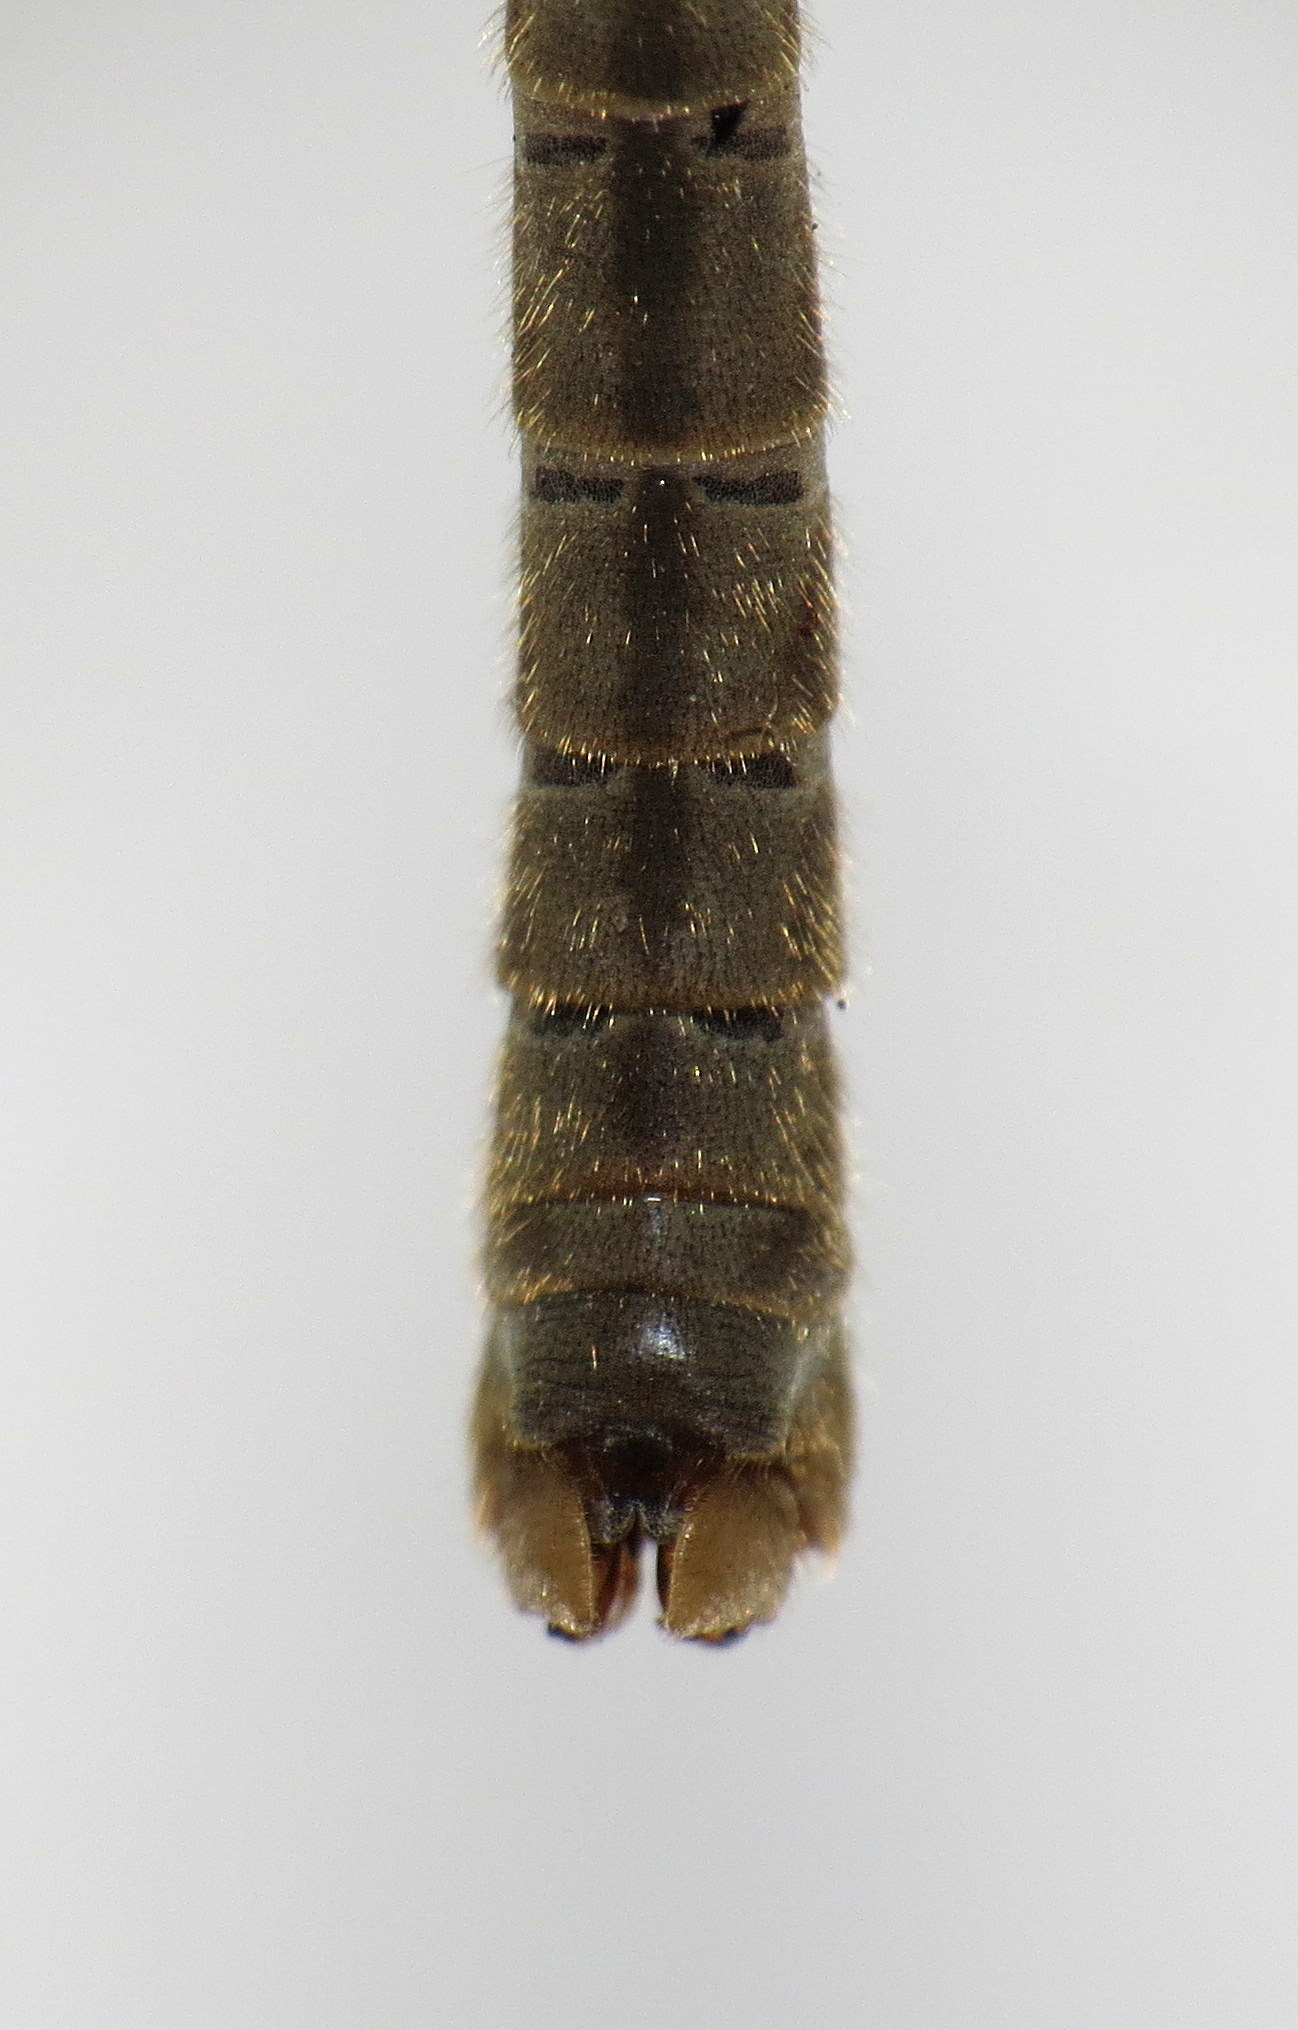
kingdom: Animalia
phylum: Arthropoda
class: Insecta
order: Diptera
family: Tipulidae
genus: Tipula
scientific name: Tipula oleracea
